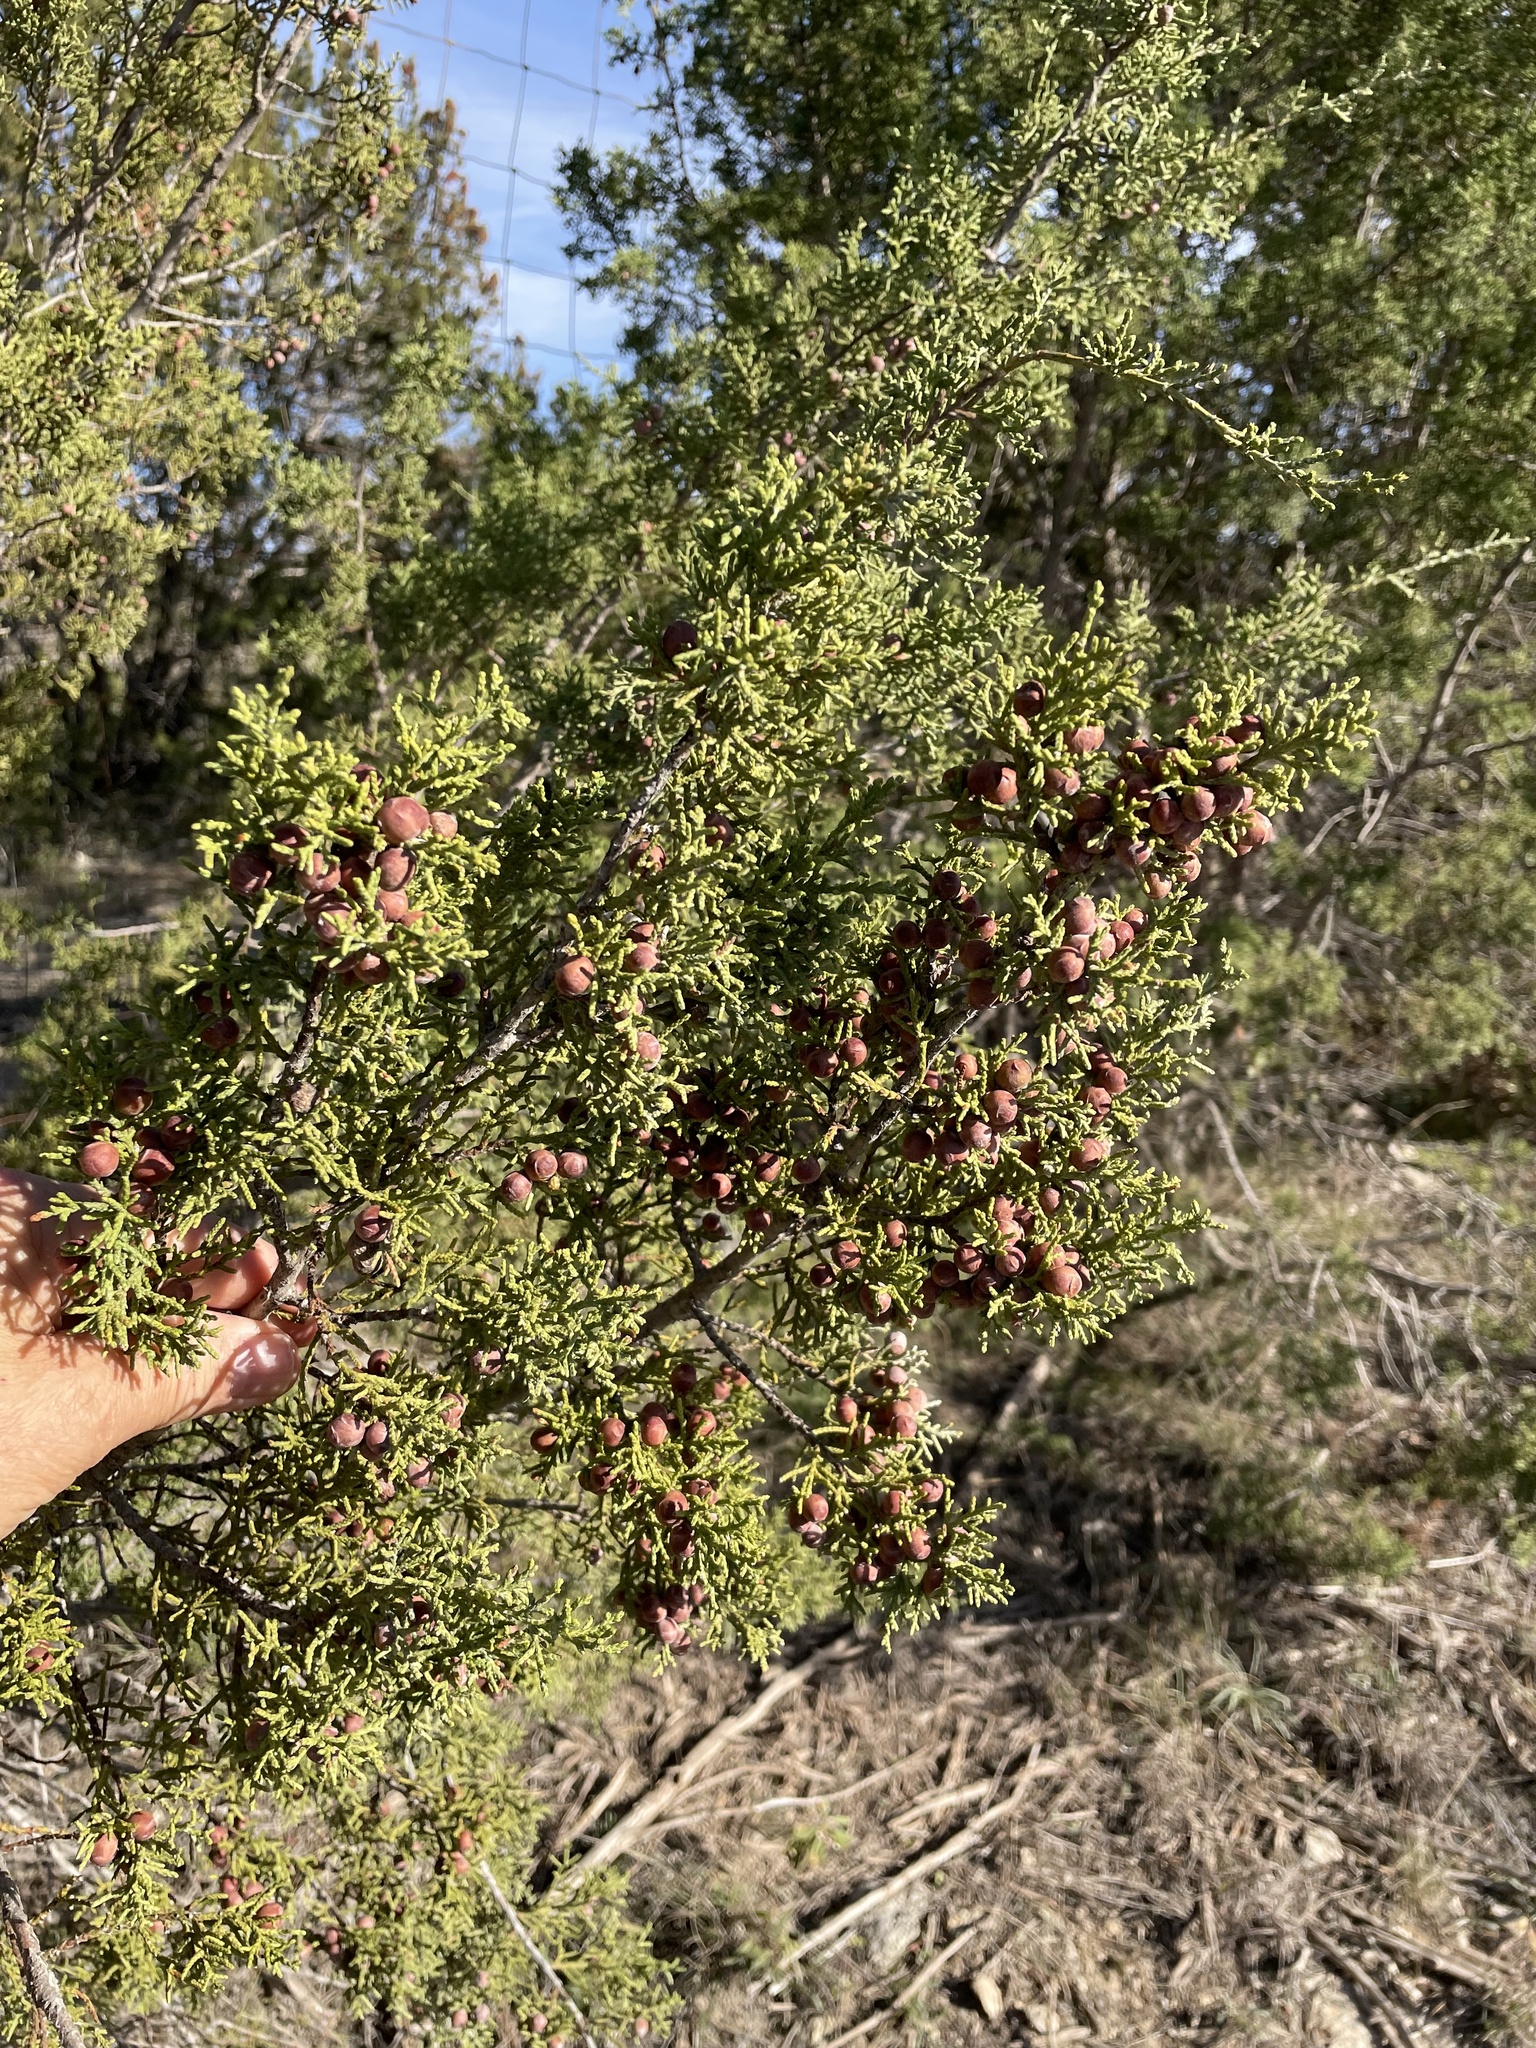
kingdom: Plantae
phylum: Tracheophyta
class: Pinopsida
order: Pinales
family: Cupressaceae
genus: Juniperus
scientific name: Juniperus pinchotii
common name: Pinchot juniper
